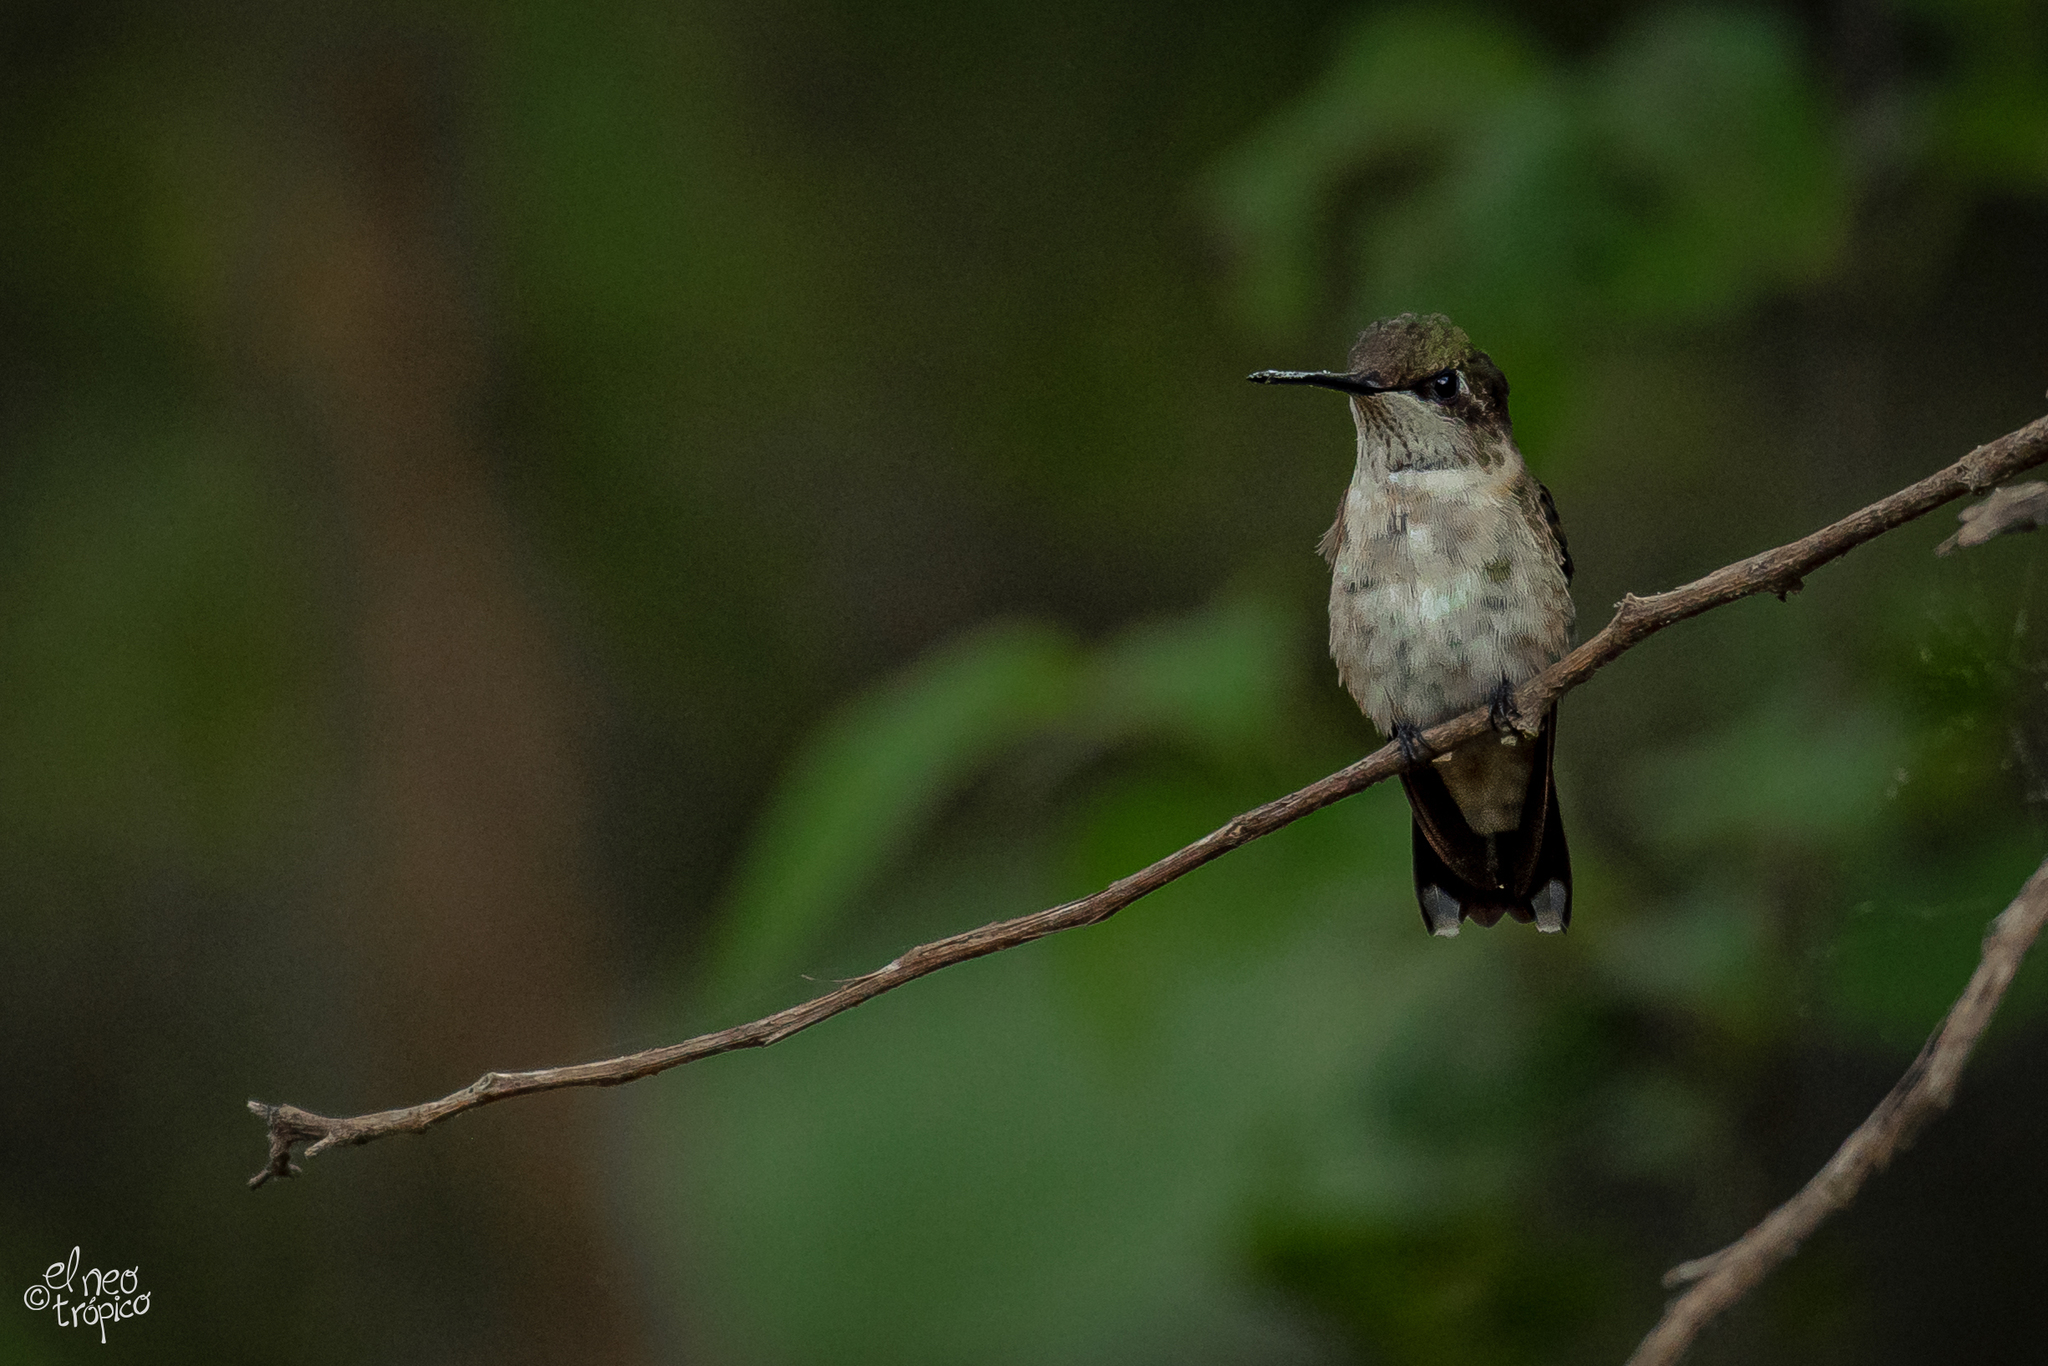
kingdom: Animalia
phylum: Chordata
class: Aves
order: Apodiformes
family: Trochilidae
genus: Archilochus
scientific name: Archilochus colubris
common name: Ruby-throated hummingbird
